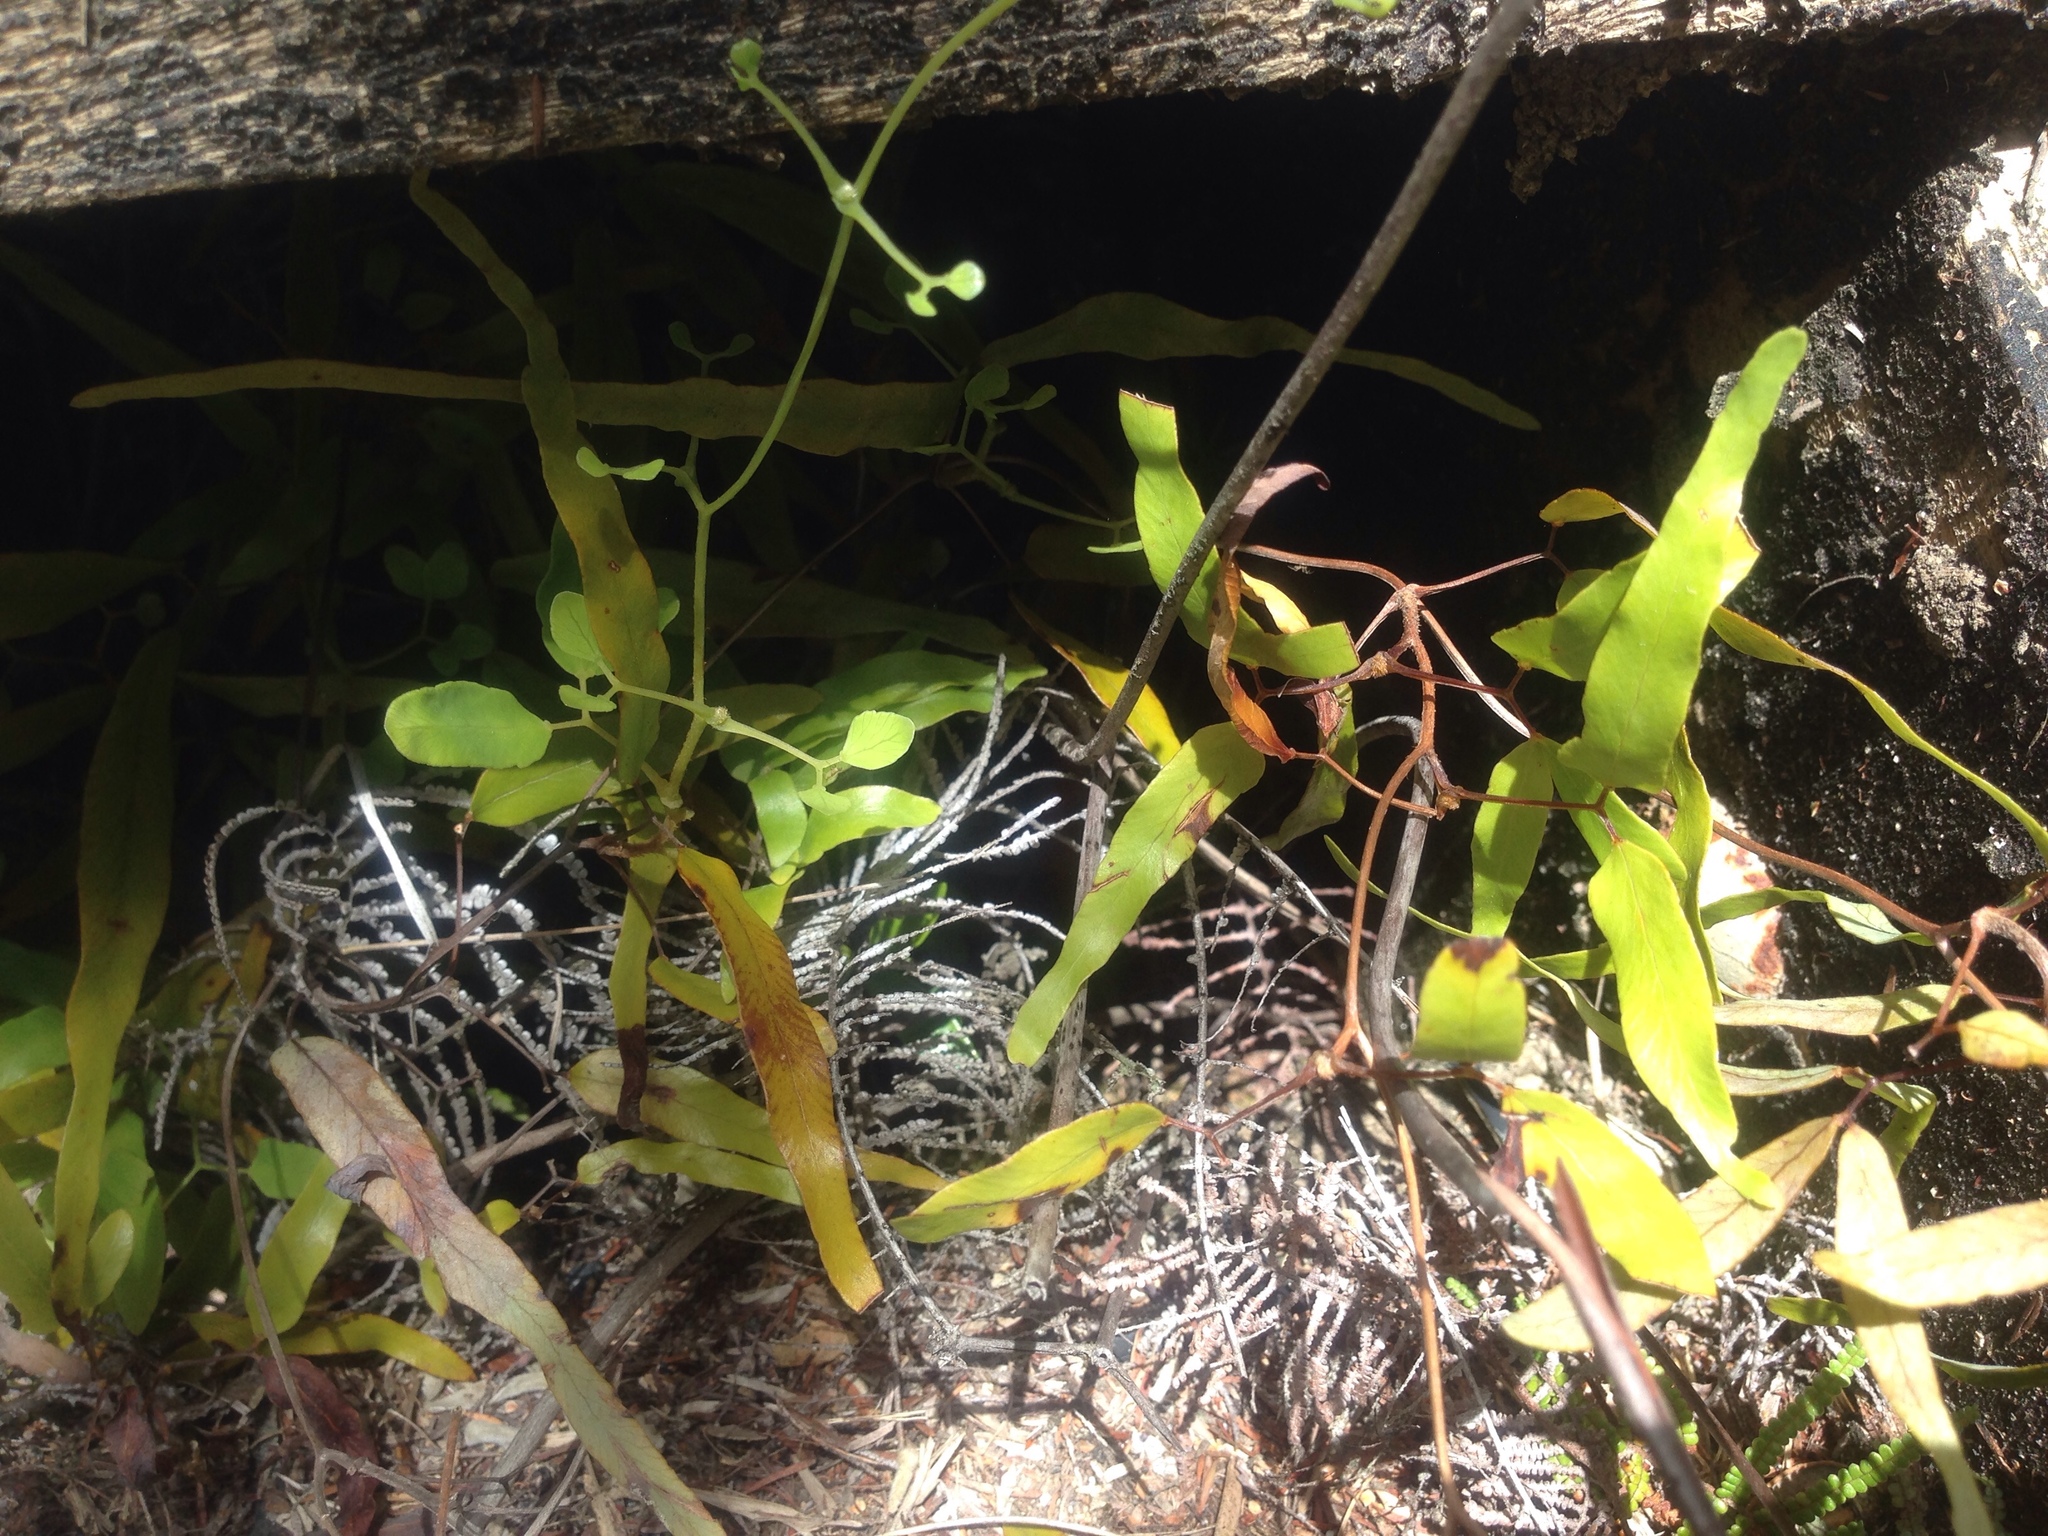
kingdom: Plantae
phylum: Tracheophyta
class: Polypodiopsida
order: Schizaeales
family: Lygodiaceae
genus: Lygodium
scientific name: Lygodium articulatum
